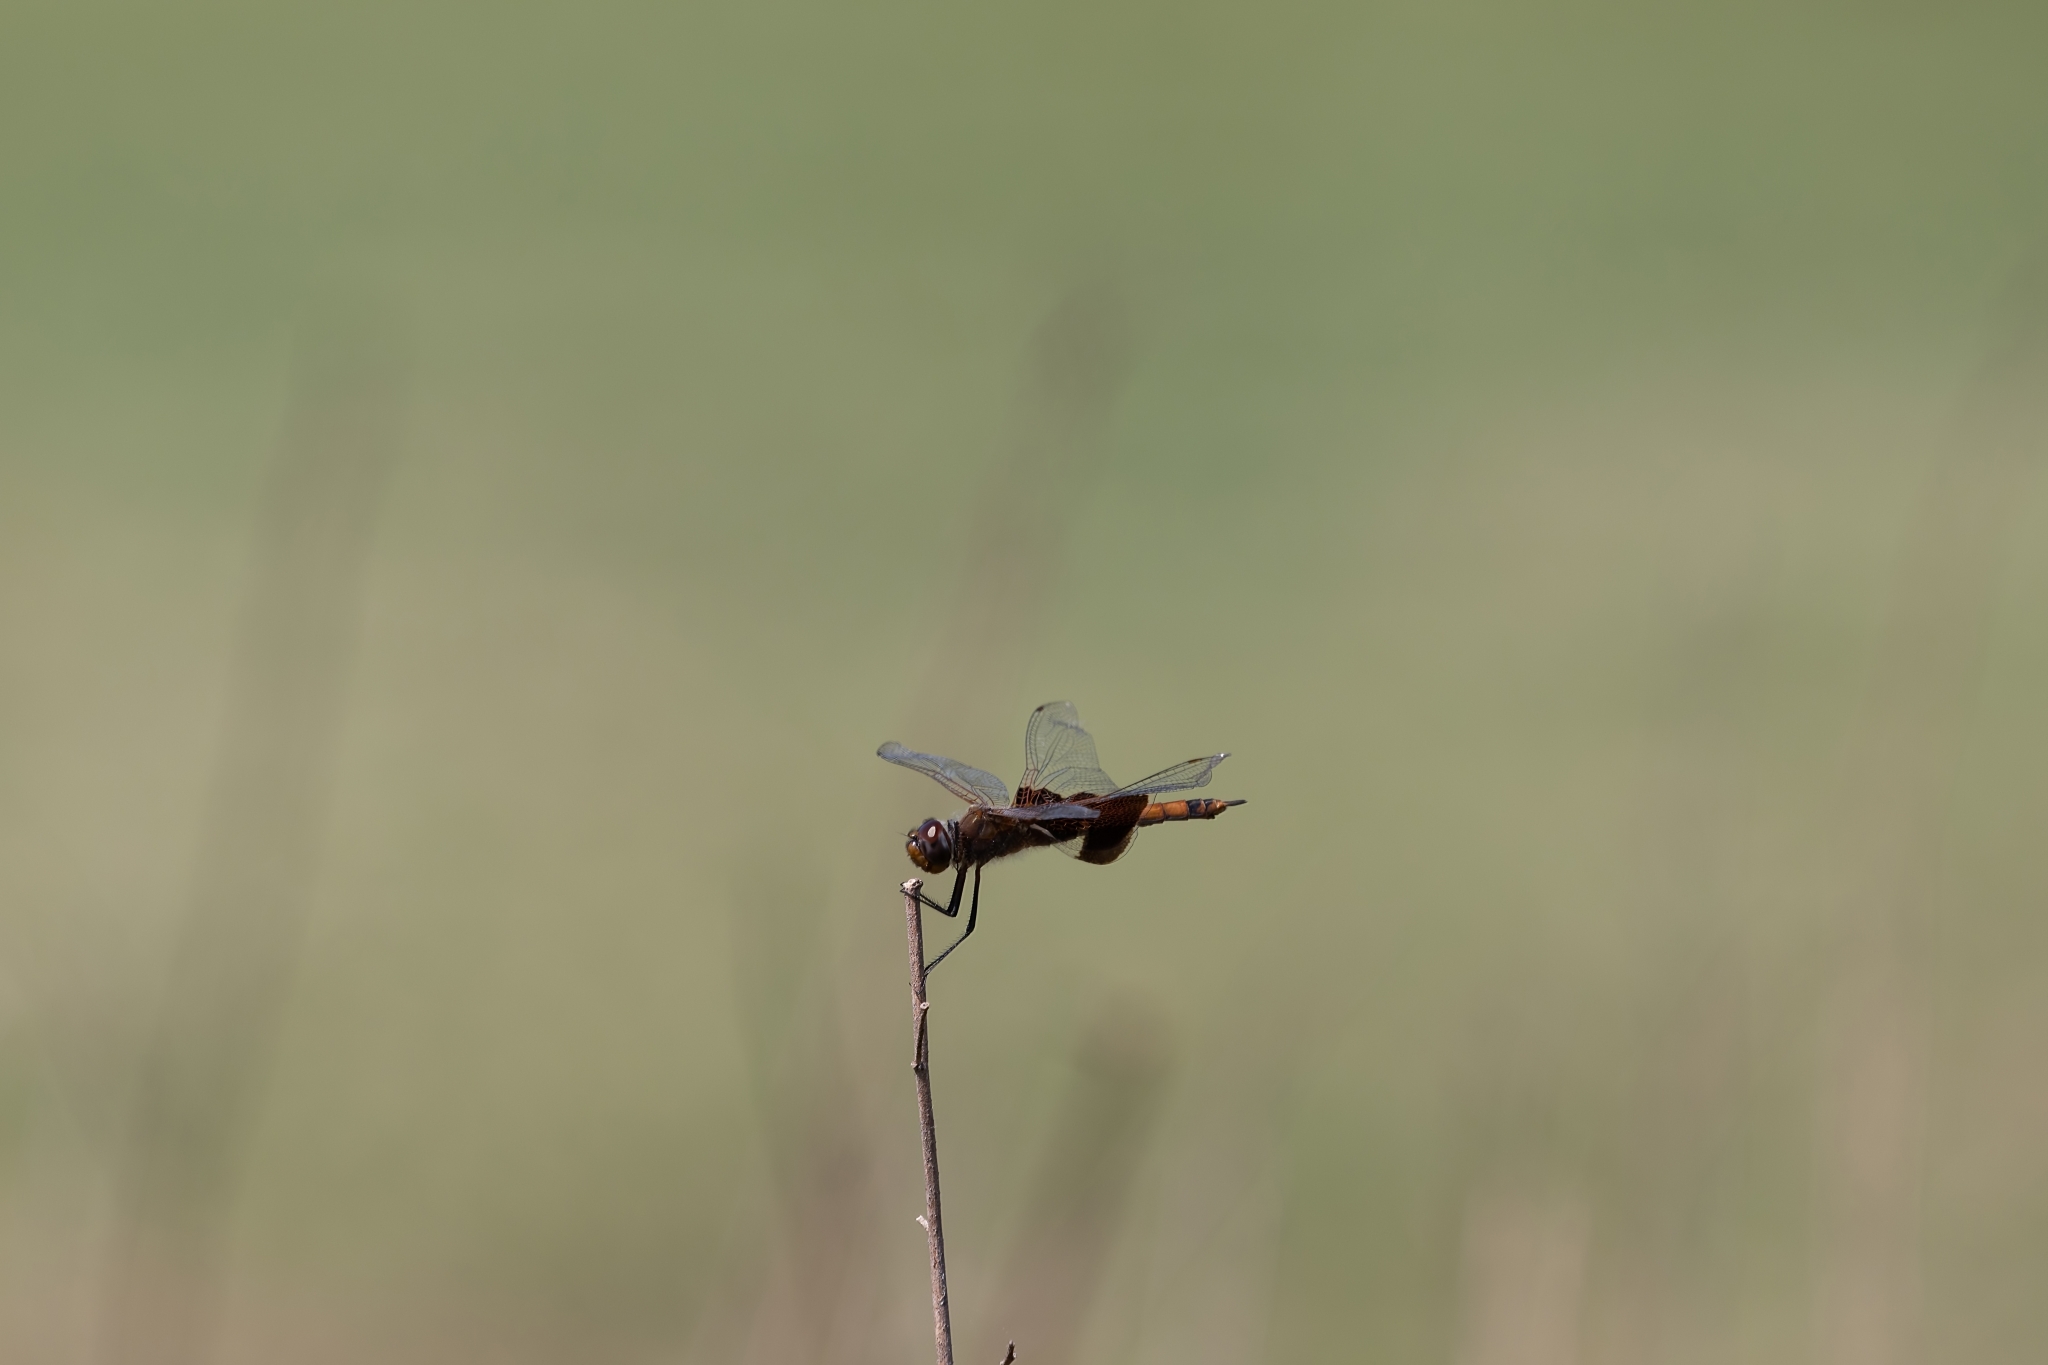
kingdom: Animalia
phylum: Arthropoda
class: Insecta
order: Odonata
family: Libellulidae
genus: Tramea
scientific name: Tramea carolina
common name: Carolina saddlebags
